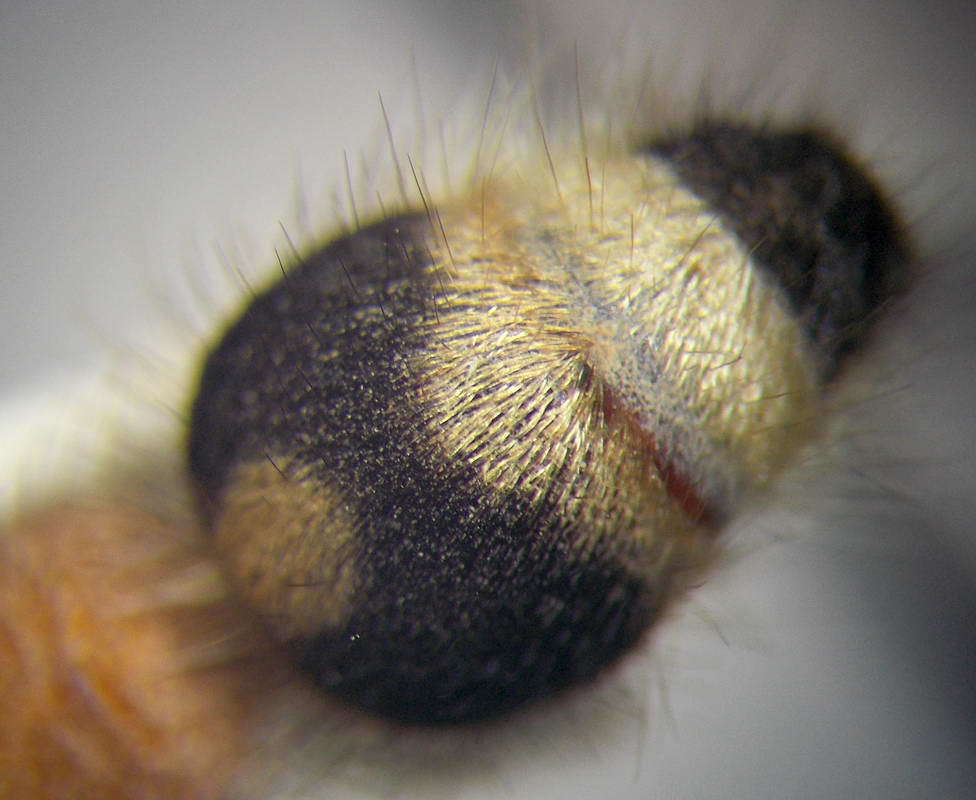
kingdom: Animalia
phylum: Arthropoda
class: Insecta
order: Hymenoptera
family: Mutillidae
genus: Nemka
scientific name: Nemka viduata
